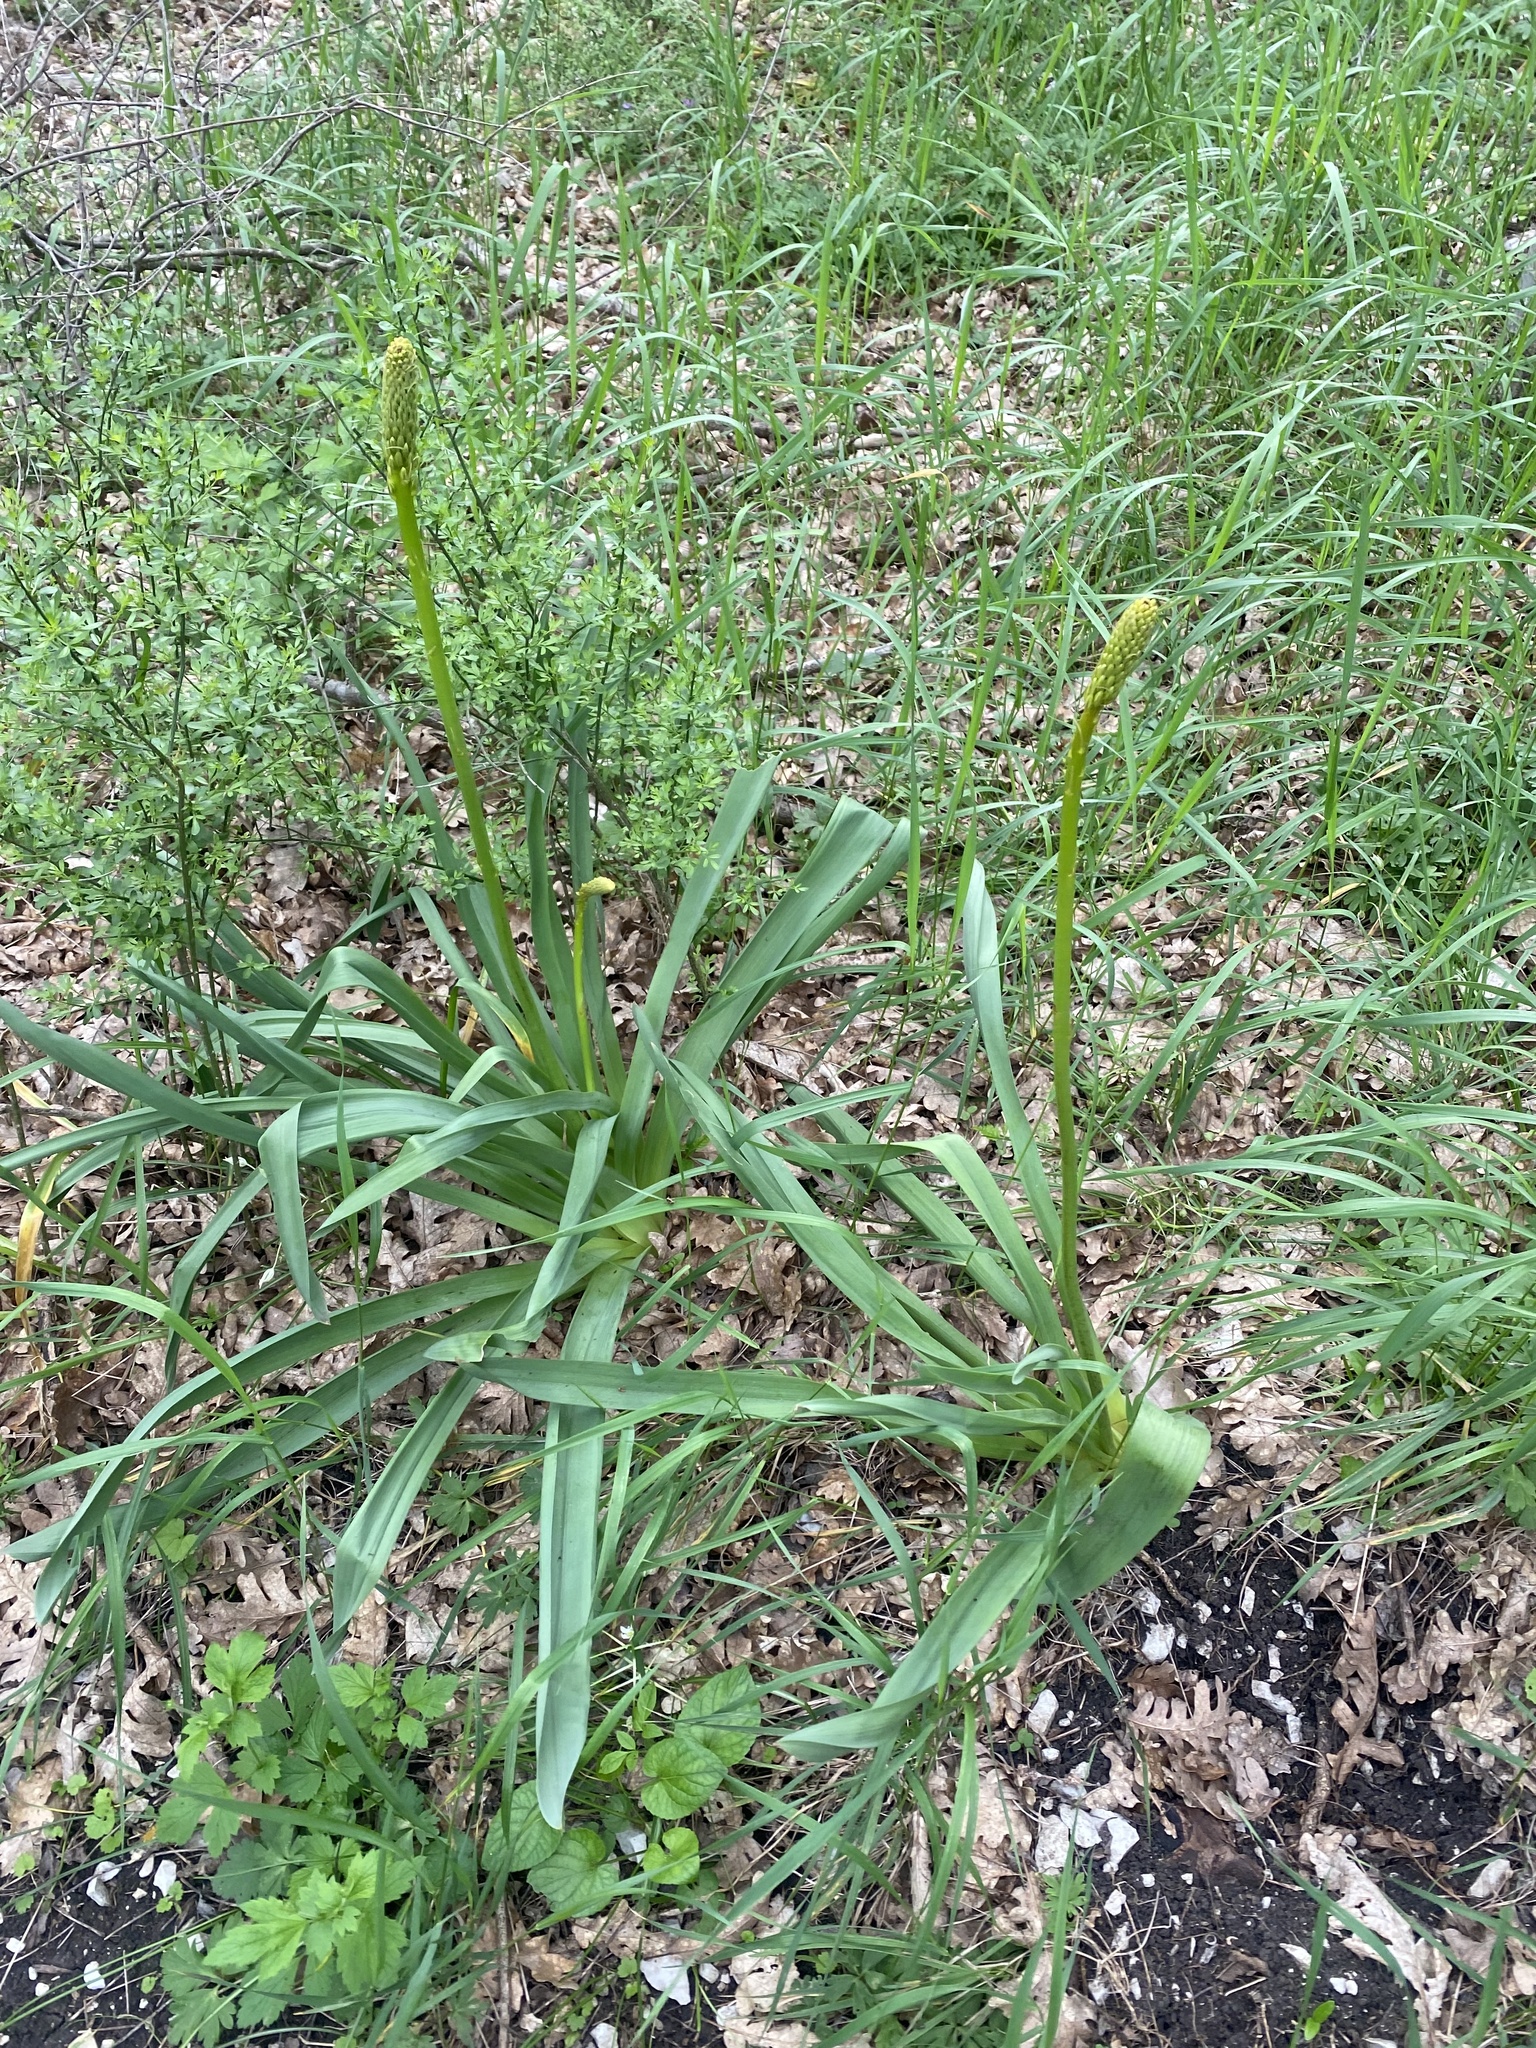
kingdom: Plantae
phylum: Tracheophyta
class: Liliopsida
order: Asparagales
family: Asphodelaceae
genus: Eremurus
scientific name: Eremurus spectabilis
